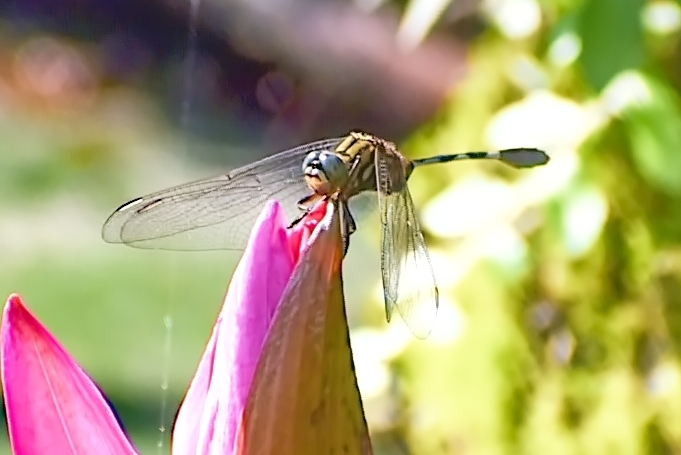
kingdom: Animalia
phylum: Arthropoda
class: Insecta
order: Odonata
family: Libellulidae
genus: Orthetrum
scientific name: Orthetrum sabina
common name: Slender skimmer
